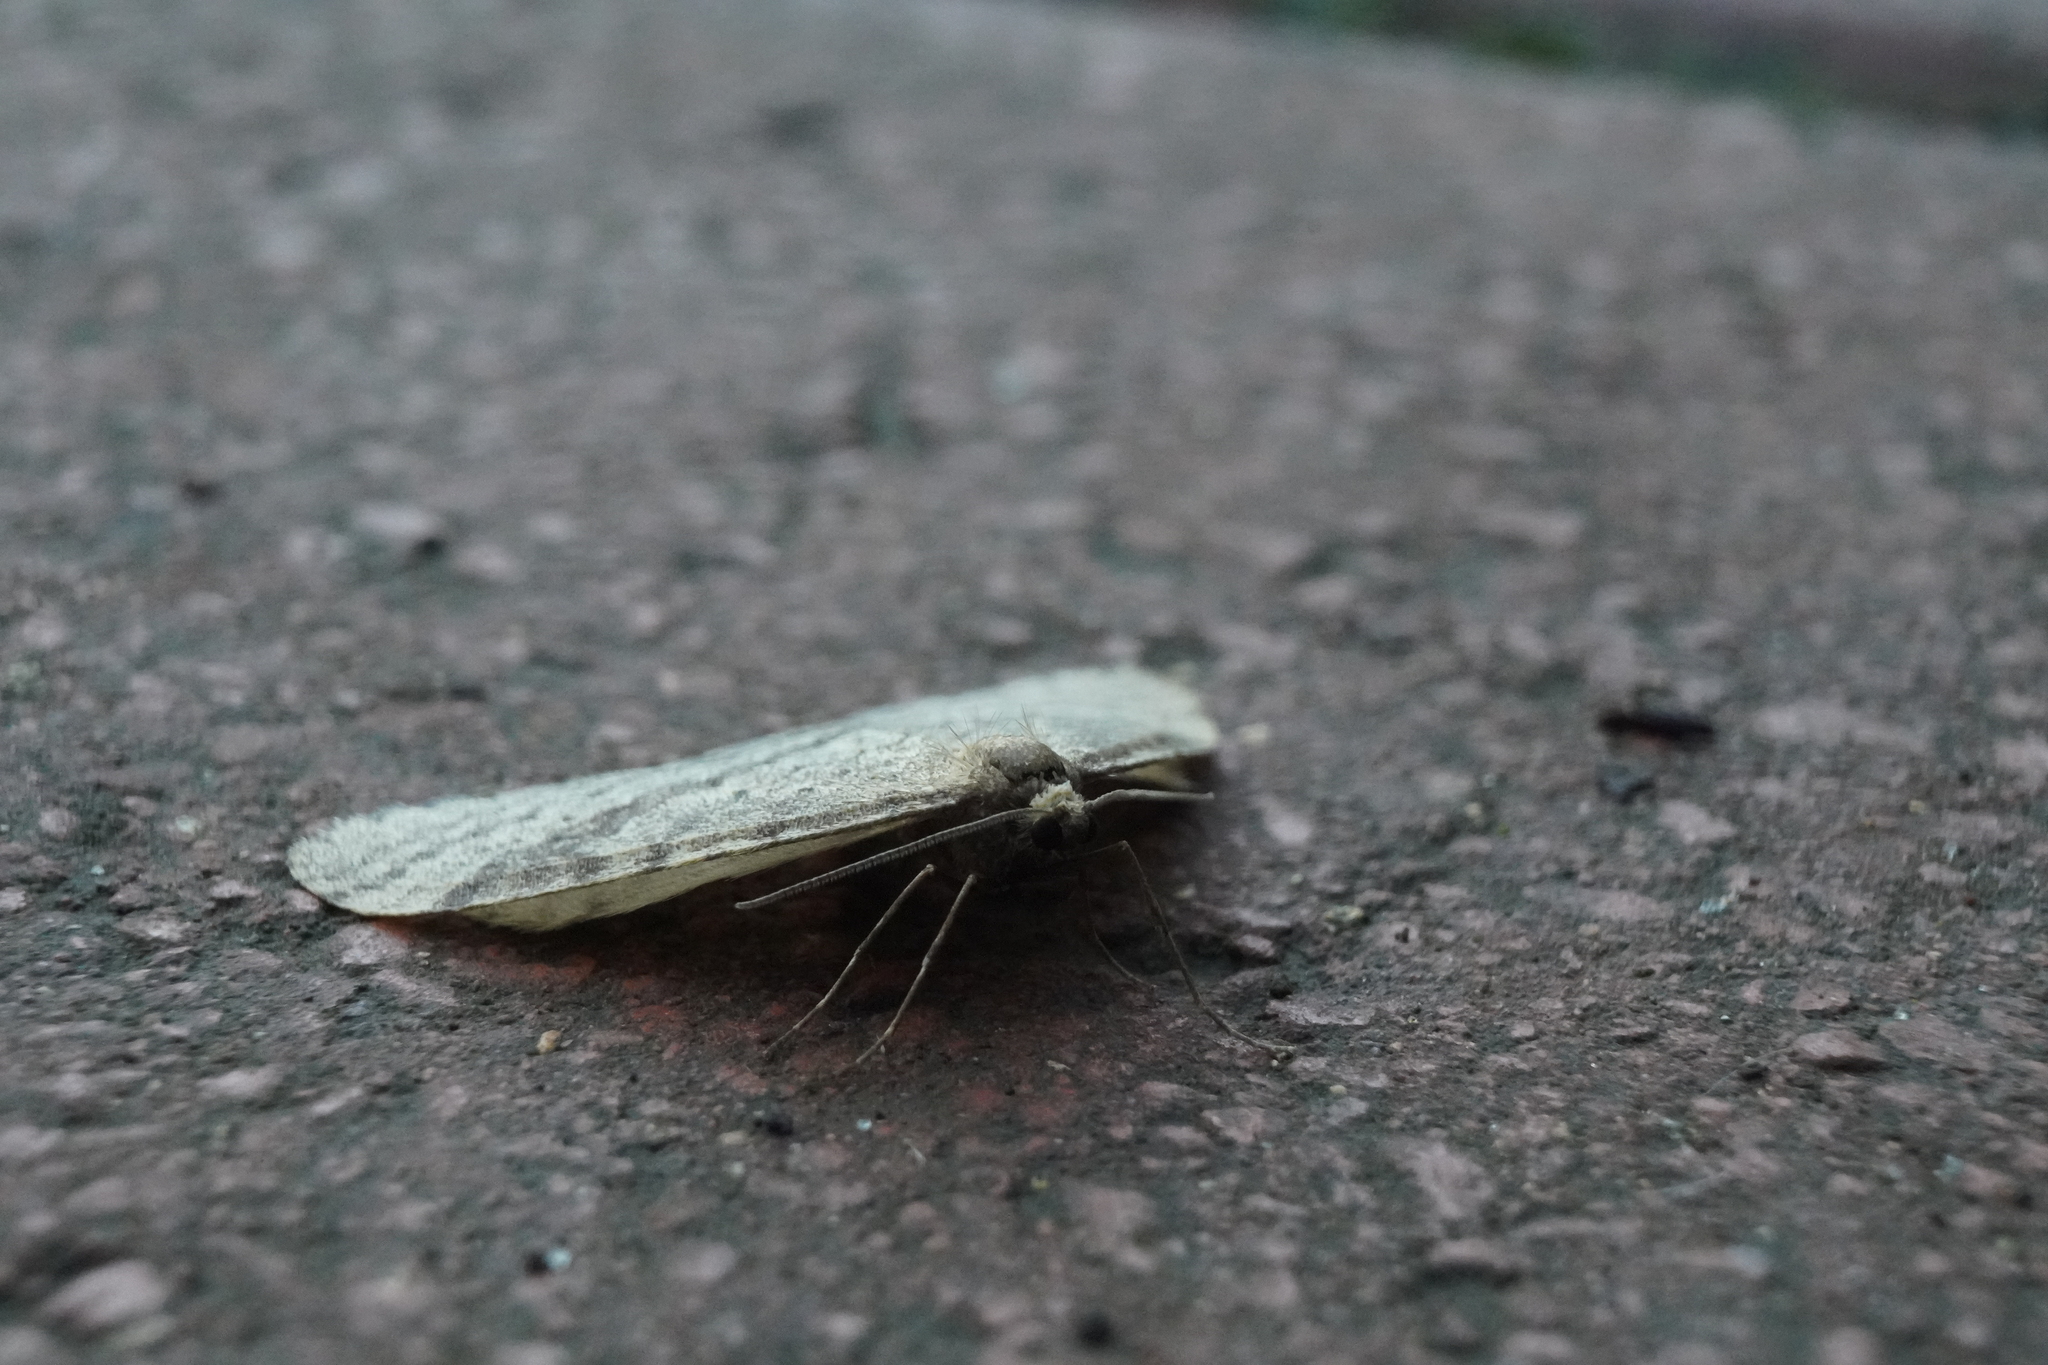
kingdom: Animalia
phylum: Arthropoda
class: Insecta
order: Lepidoptera
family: Geometridae
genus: Operophtera
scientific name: Operophtera bruceata
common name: Bruce spanworm
